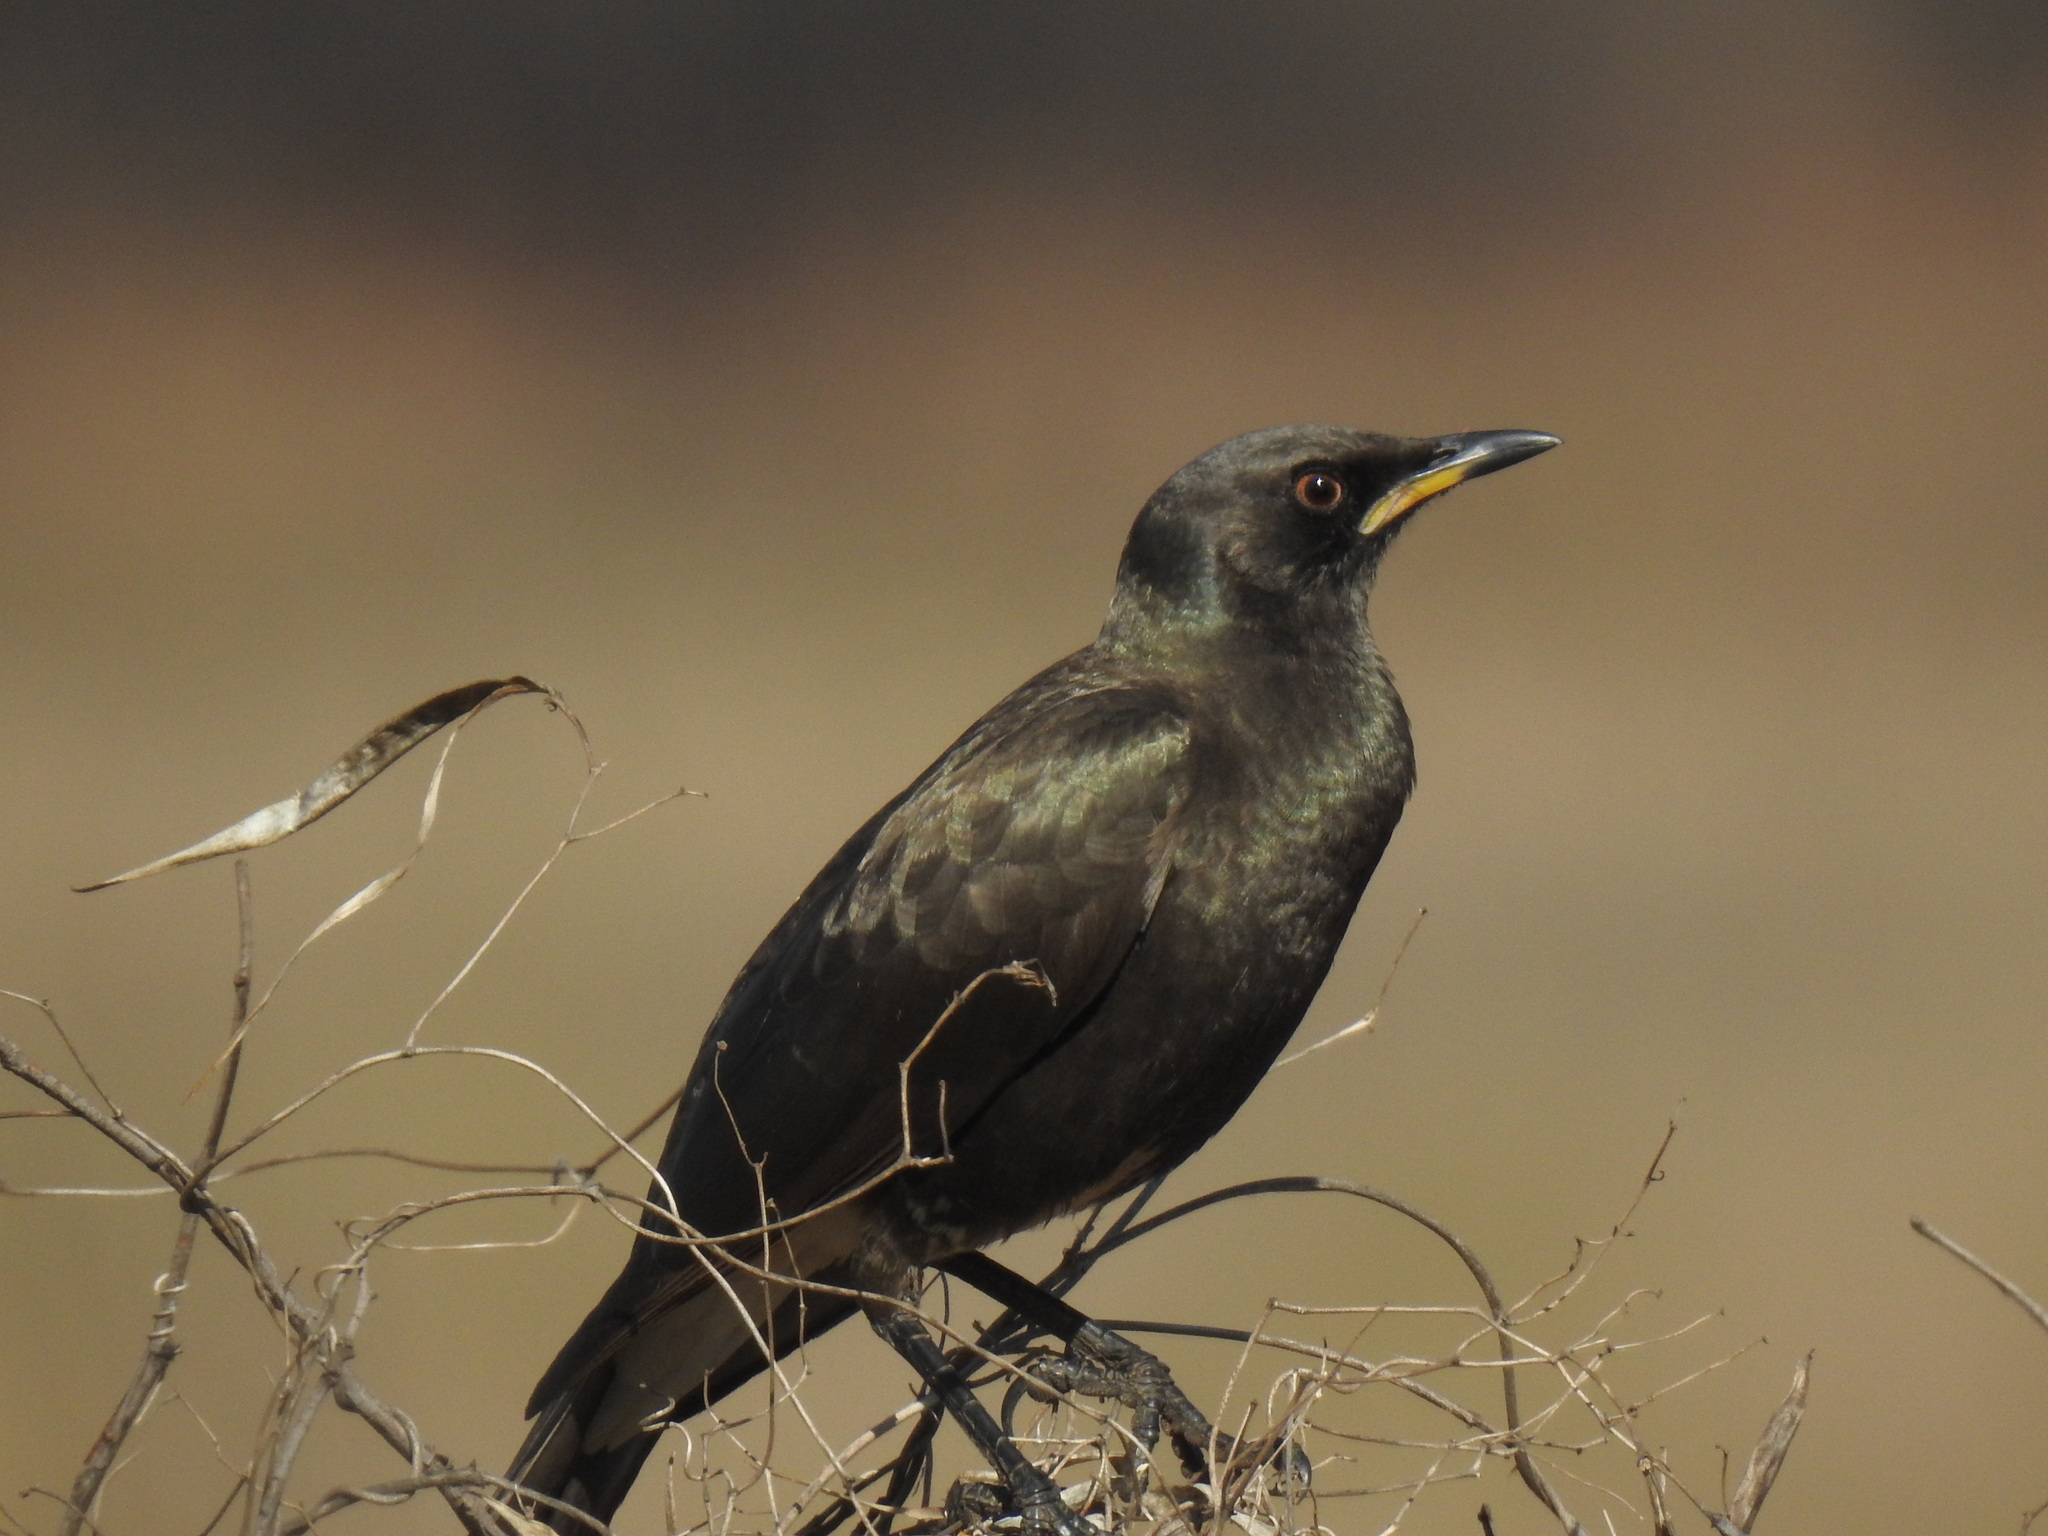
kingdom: Animalia
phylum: Chordata
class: Aves
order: Passeriformes
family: Sturnidae
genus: Lamprotornis
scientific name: Lamprotornis bicolor
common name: Pied starling
